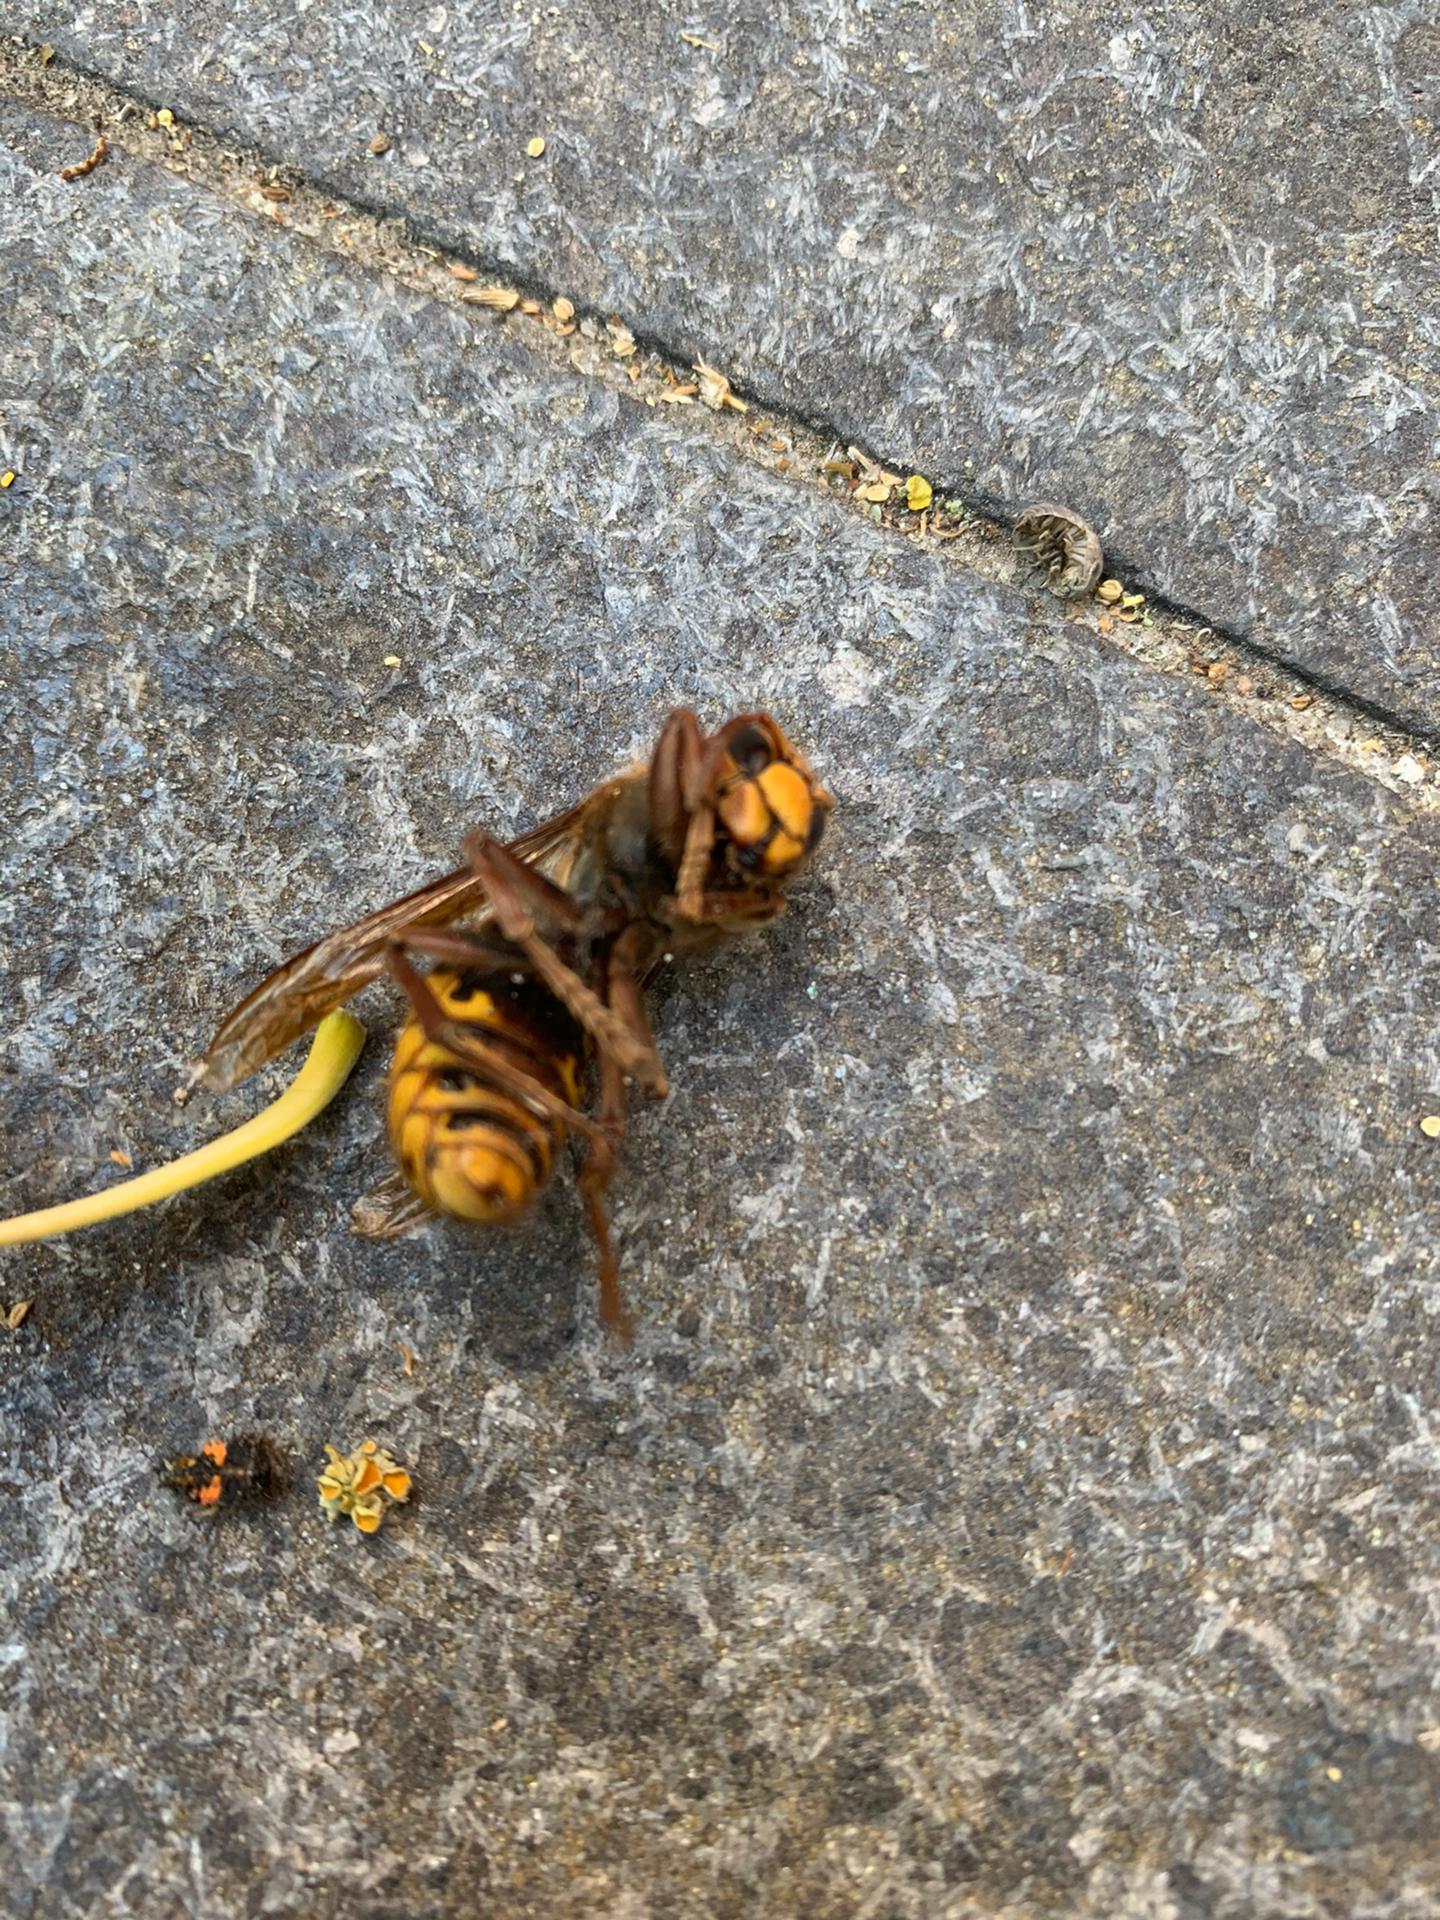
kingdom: Animalia
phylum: Arthropoda
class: Insecta
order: Hymenoptera
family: Vespidae
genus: Vespa
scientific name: Vespa crabro
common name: Hornet
